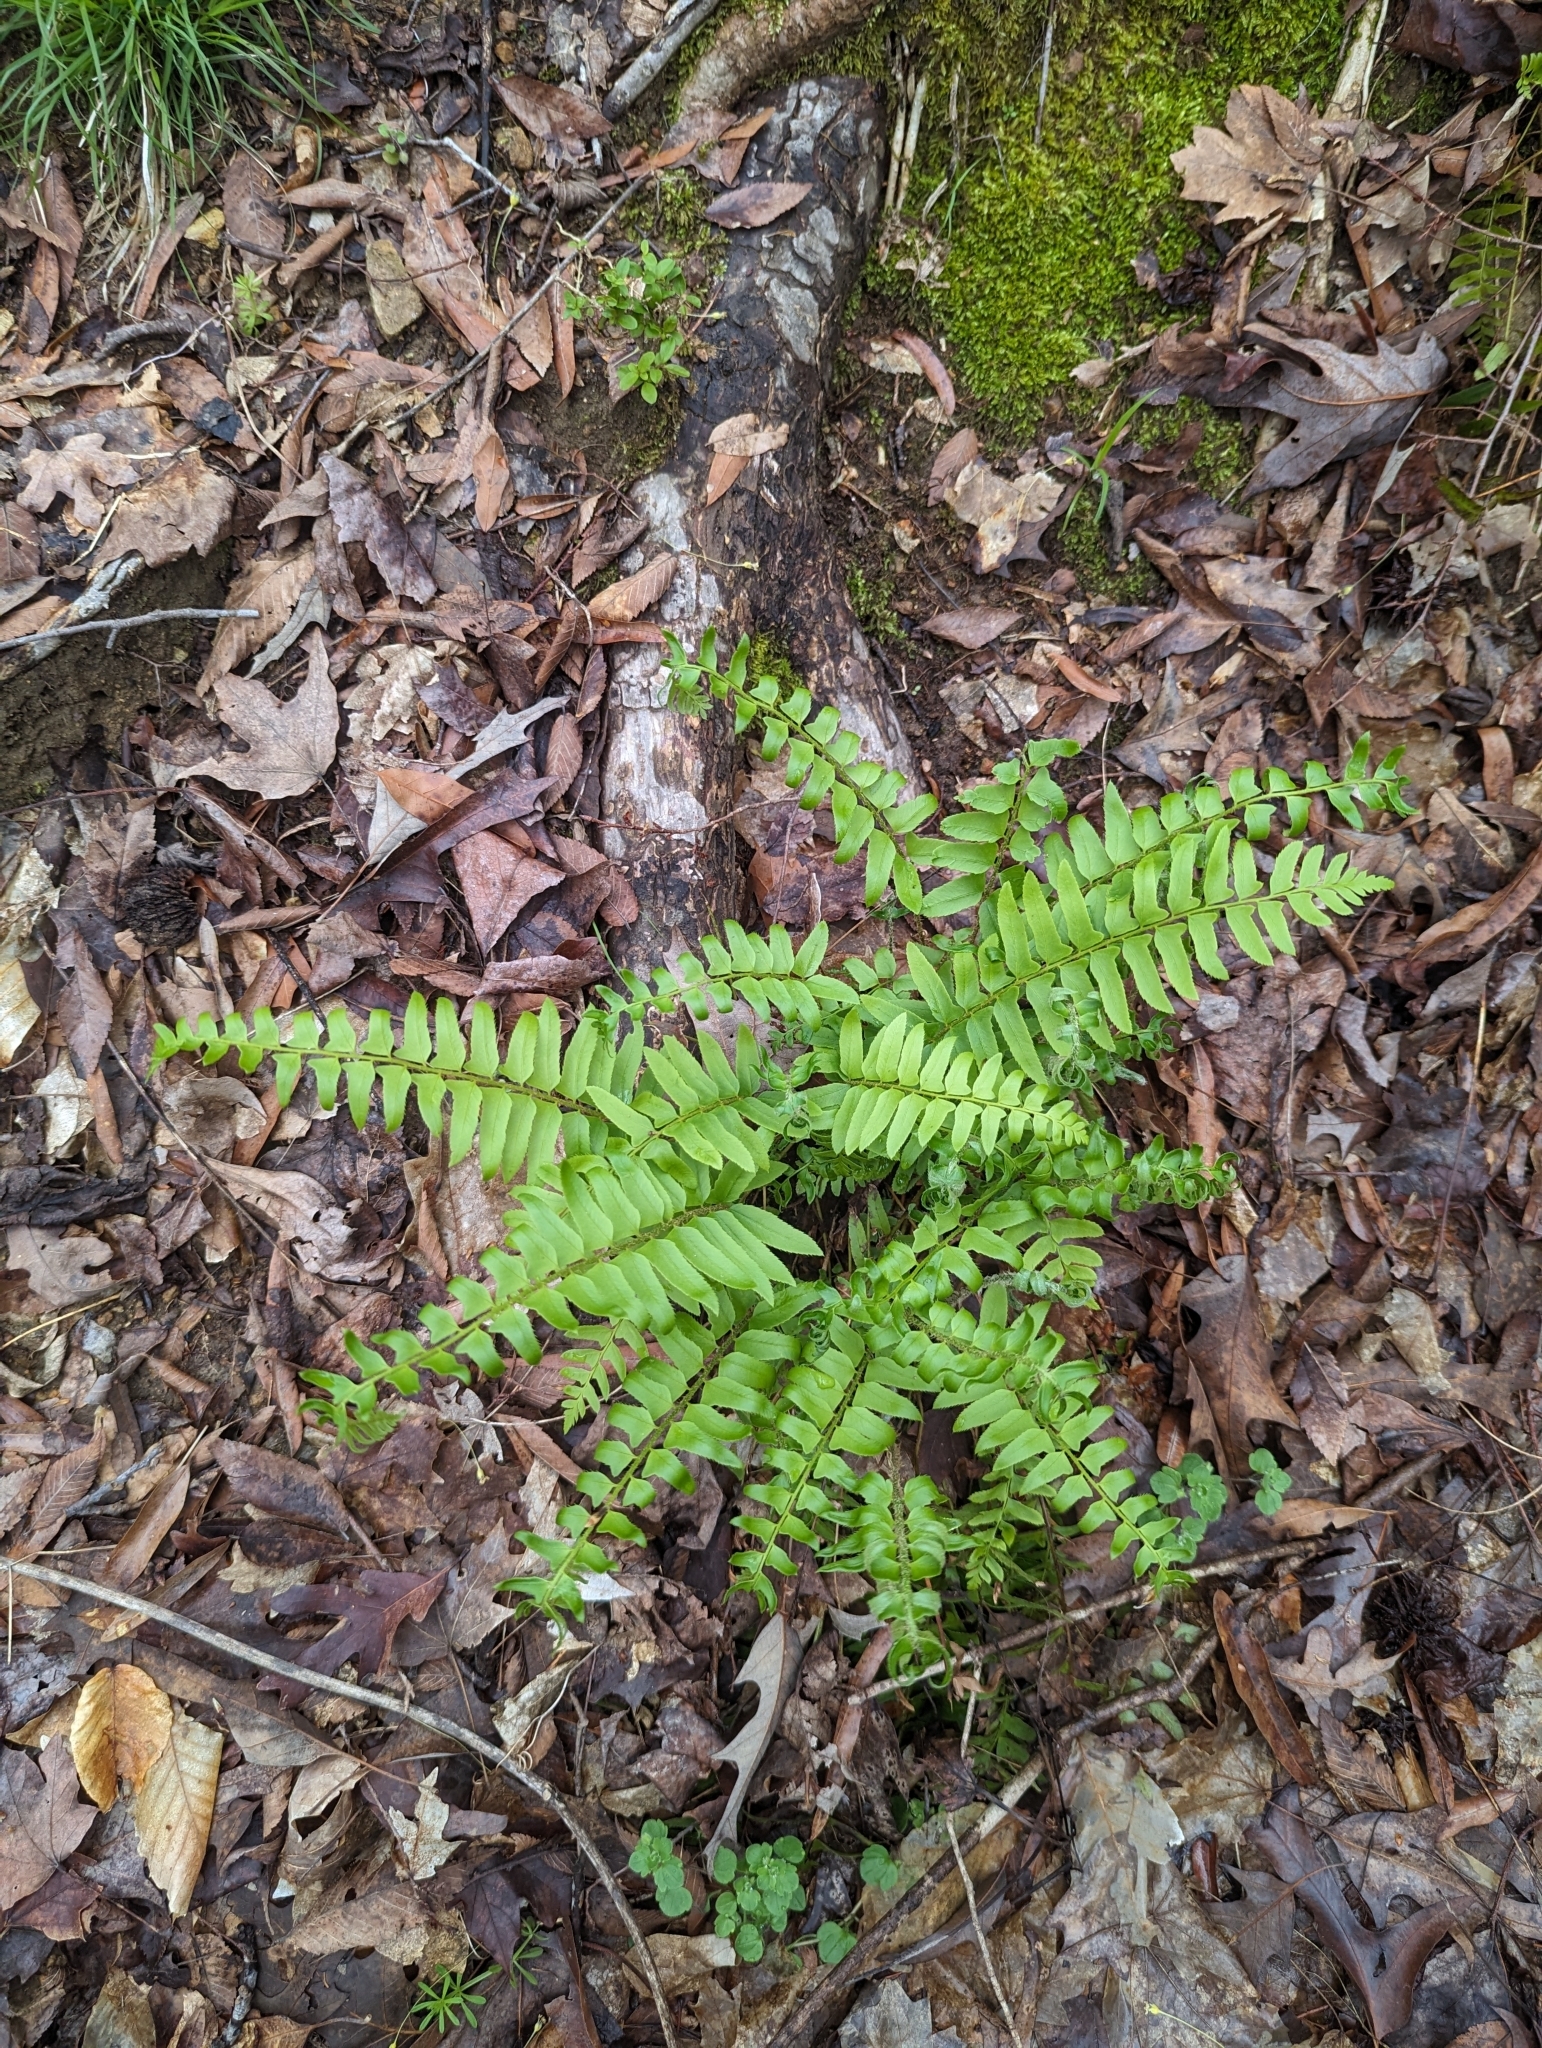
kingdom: Plantae
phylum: Tracheophyta
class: Polypodiopsida
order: Polypodiales
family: Dryopteridaceae
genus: Polystichum
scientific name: Polystichum acrostichoides
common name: Christmas fern
